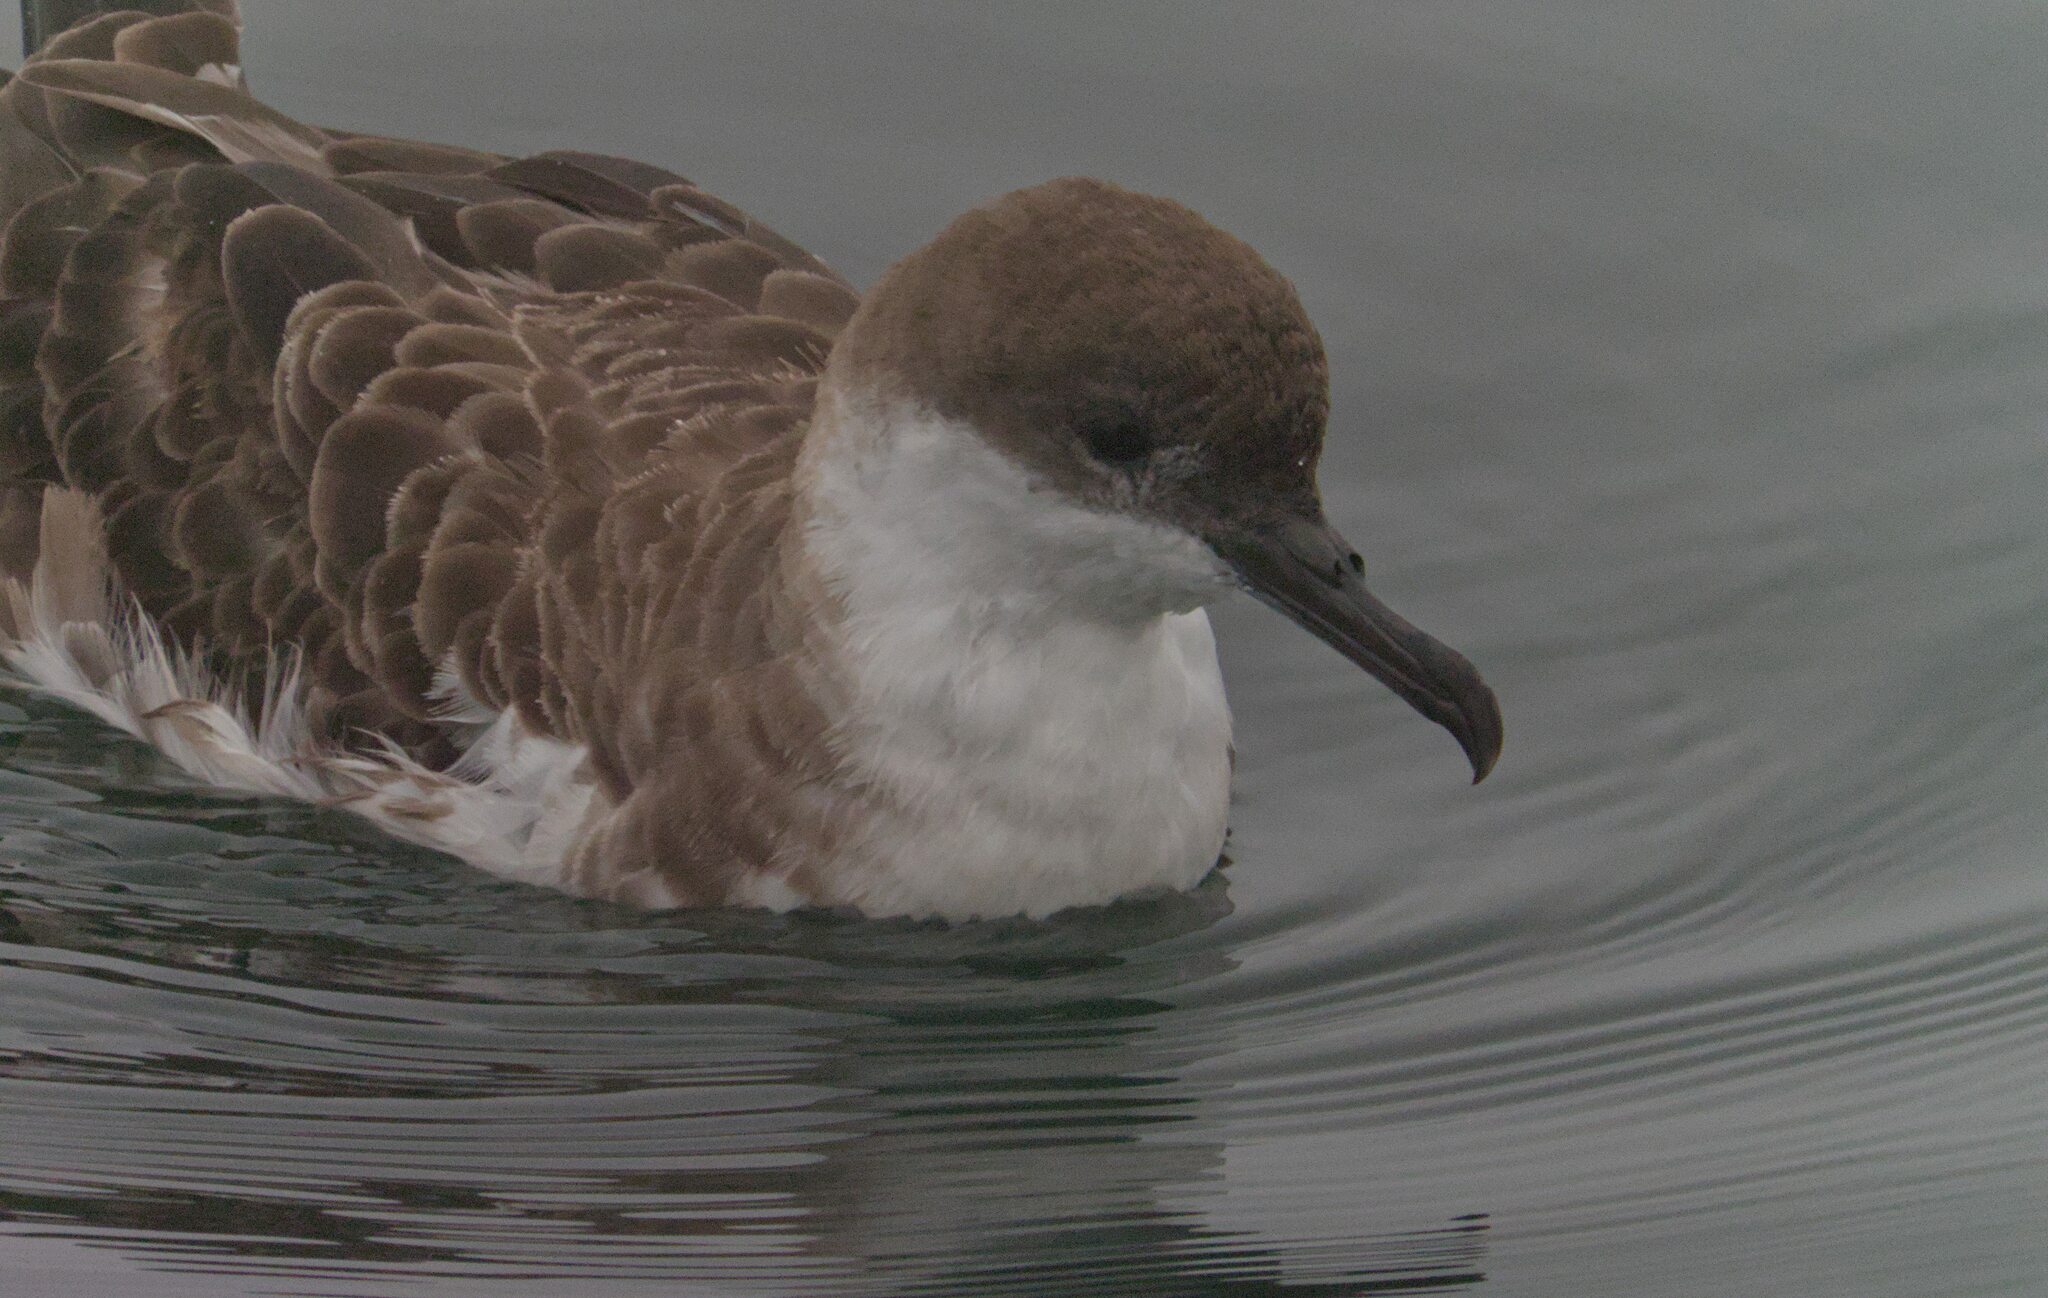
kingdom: Animalia
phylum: Chordata
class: Aves
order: Procellariiformes
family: Procellariidae
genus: Puffinus
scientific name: Puffinus gravis
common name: Great shearwater
